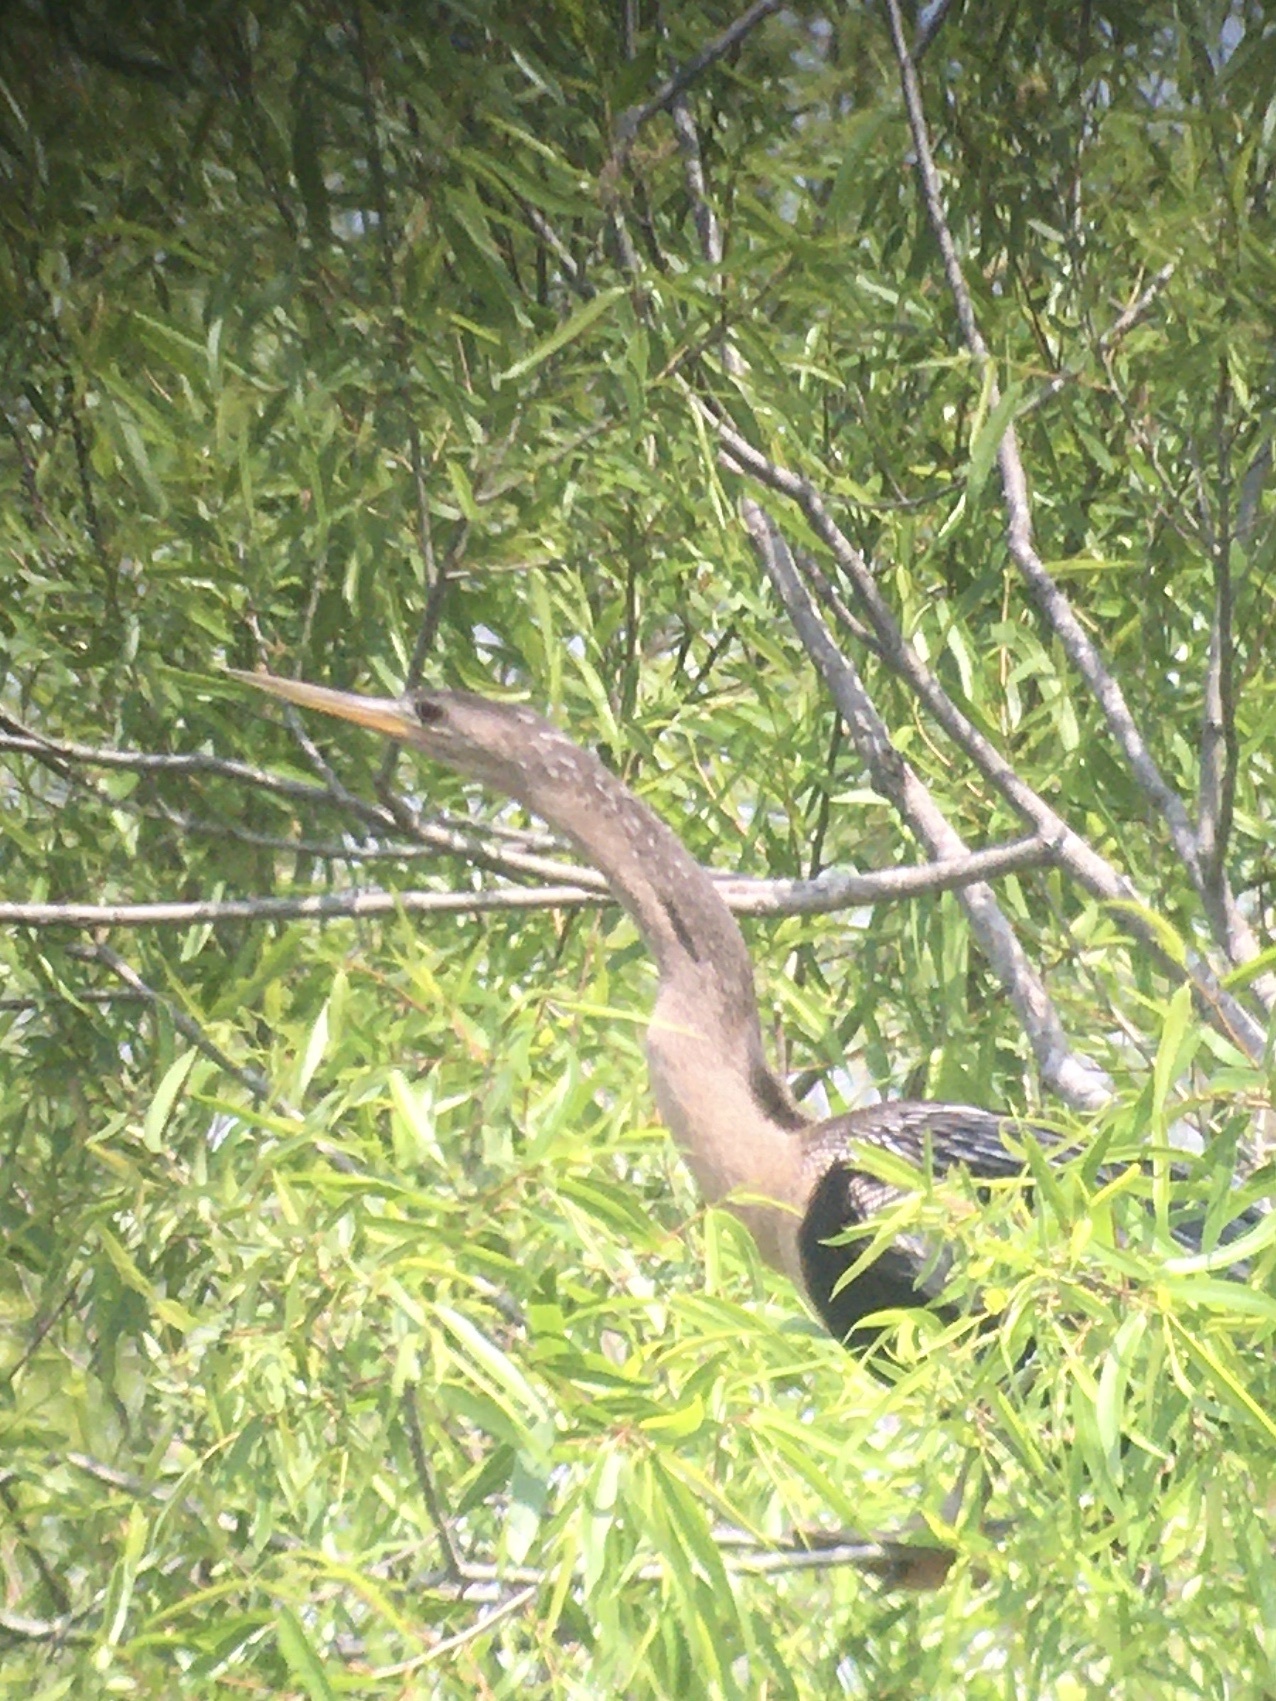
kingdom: Animalia
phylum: Chordata
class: Aves
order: Suliformes
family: Anhingidae
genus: Anhinga
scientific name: Anhinga anhinga
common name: Anhinga
